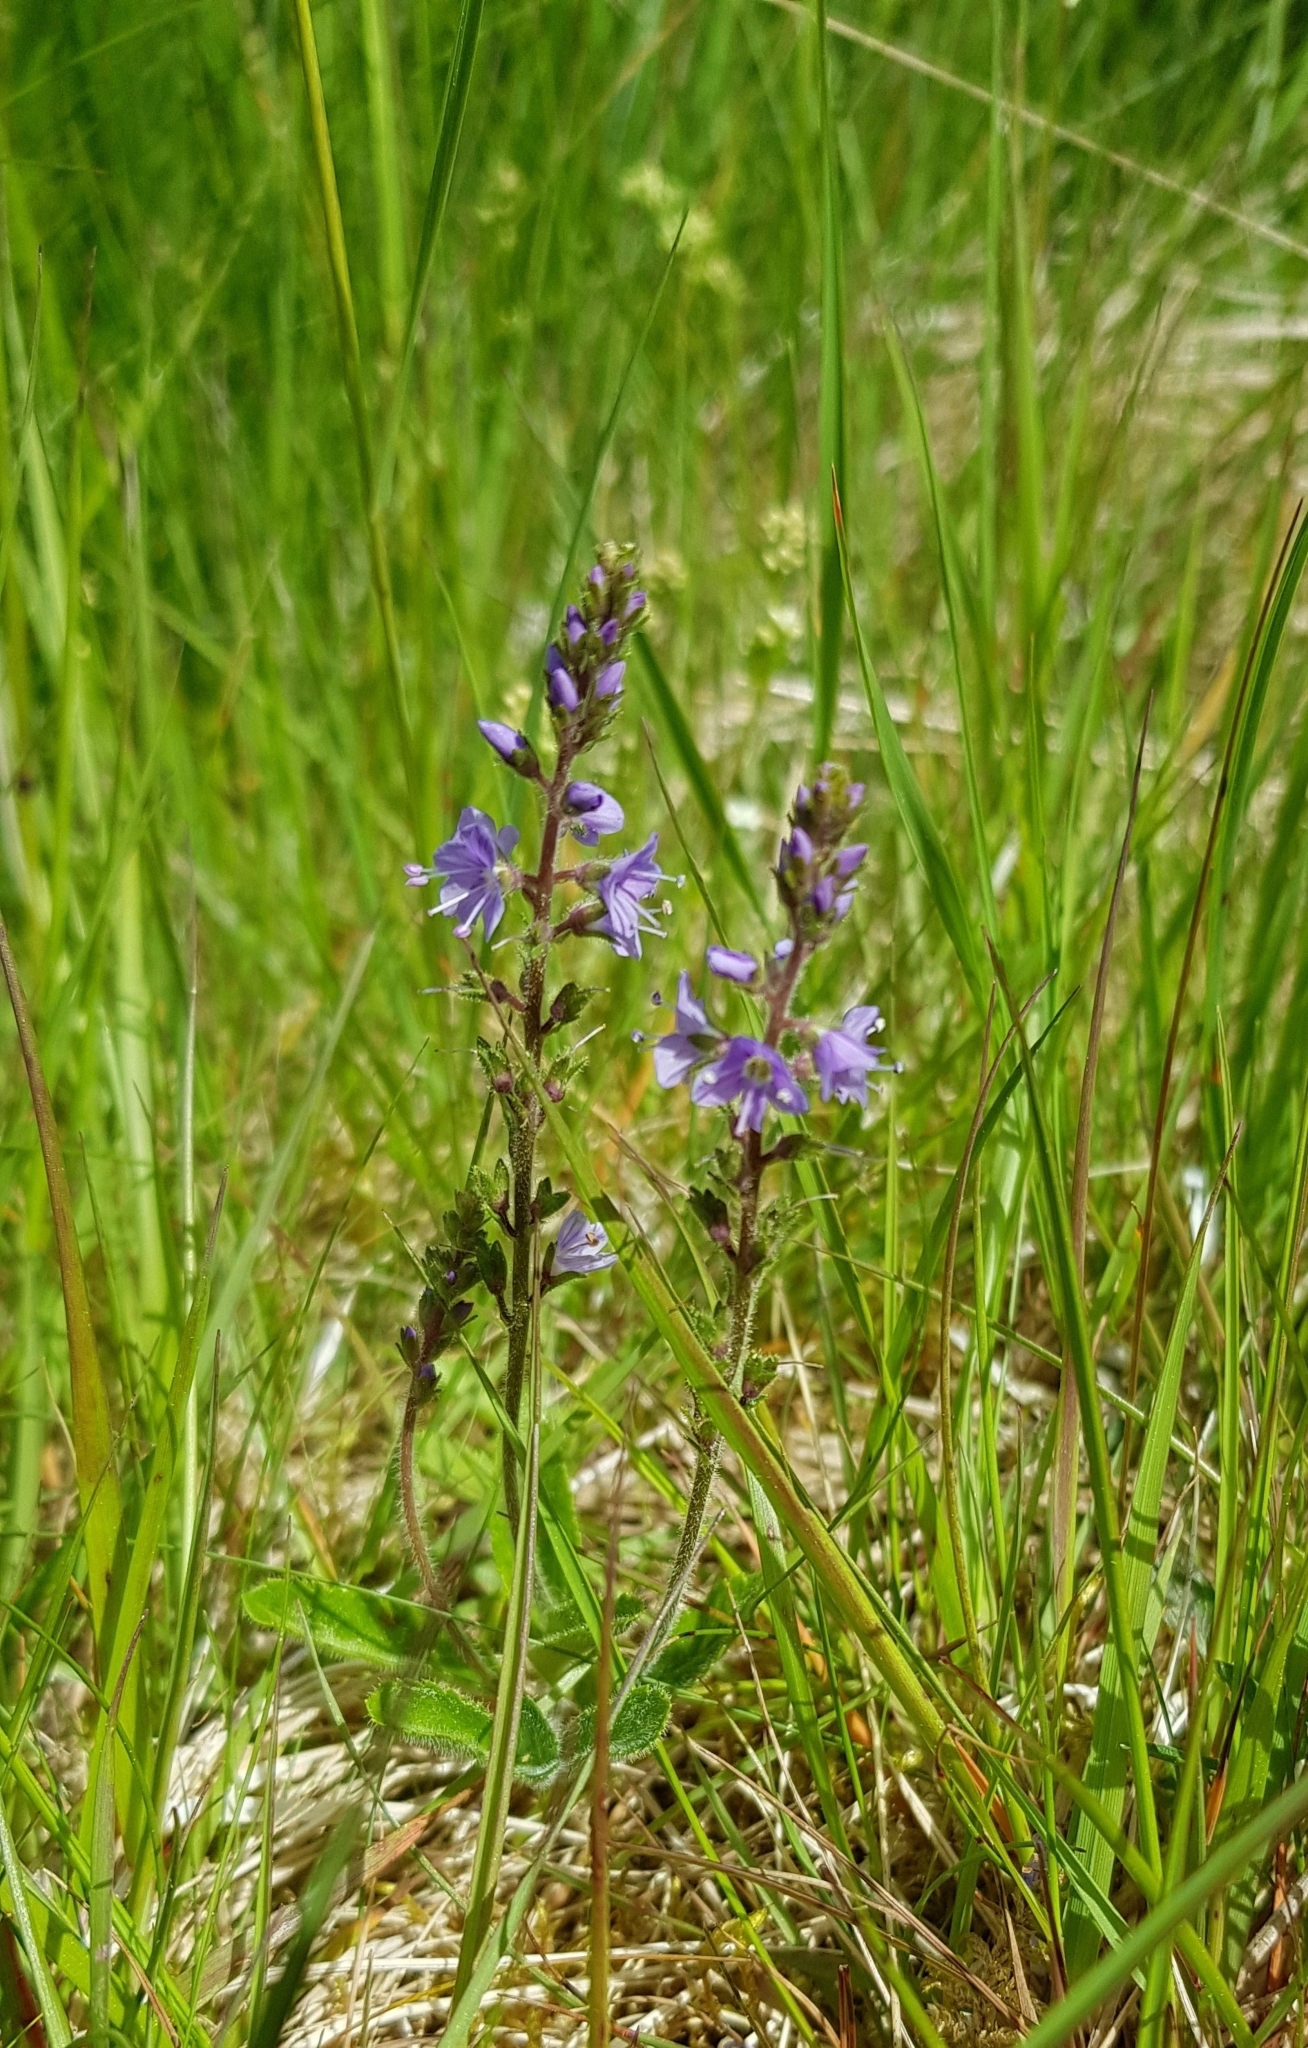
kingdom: Plantae
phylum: Tracheophyta
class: Magnoliopsida
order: Lamiales
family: Plantaginaceae
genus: Veronica
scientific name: Veronica officinalis
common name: Common speedwell
